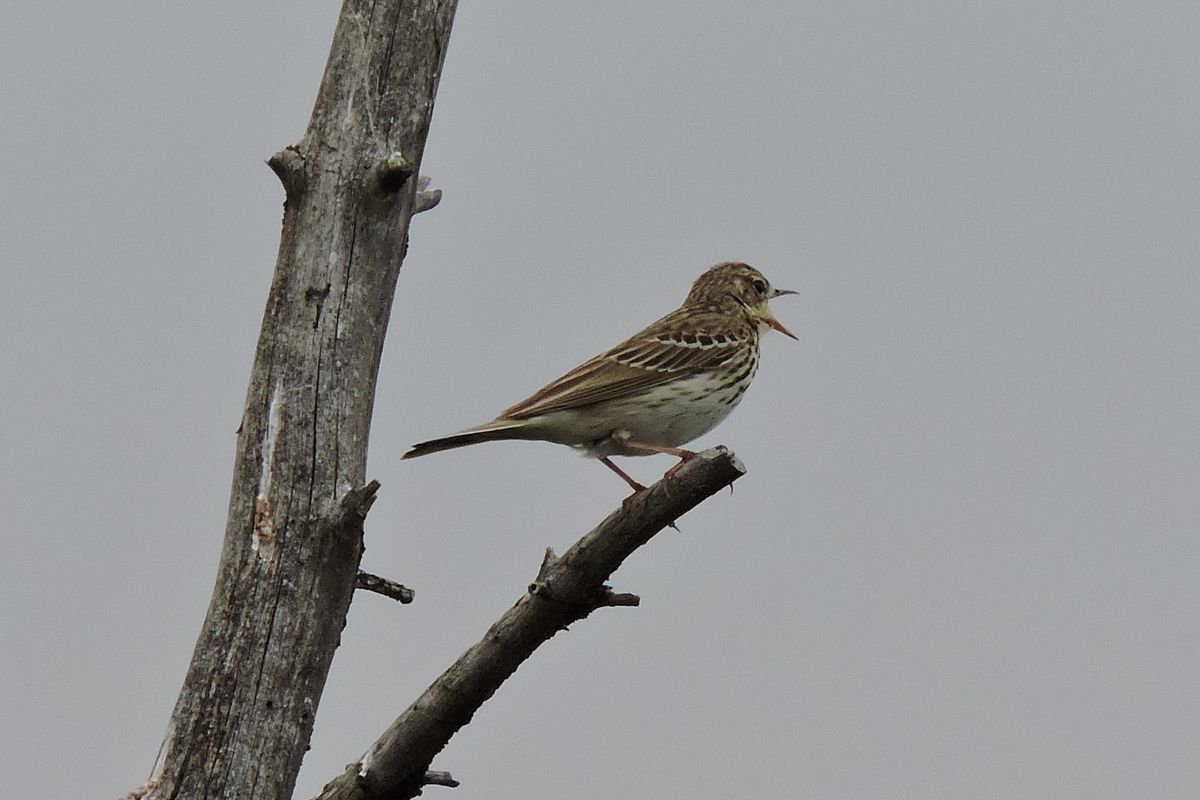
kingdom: Animalia
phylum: Chordata
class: Aves
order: Passeriformes
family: Motacillidae
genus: Anthus
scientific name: Anthus trivialis
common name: Tree pipit
